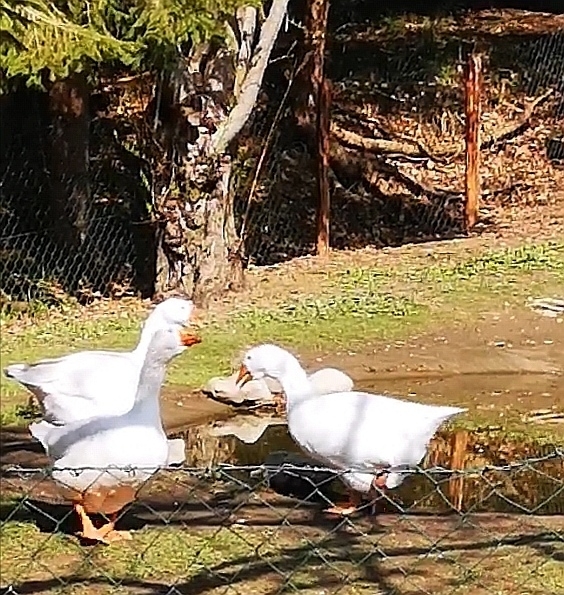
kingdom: Animalia
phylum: Chordata
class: Aves
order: Anseriformes
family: Anatidae
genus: Anser
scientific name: Anser anser
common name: Greylag goose
